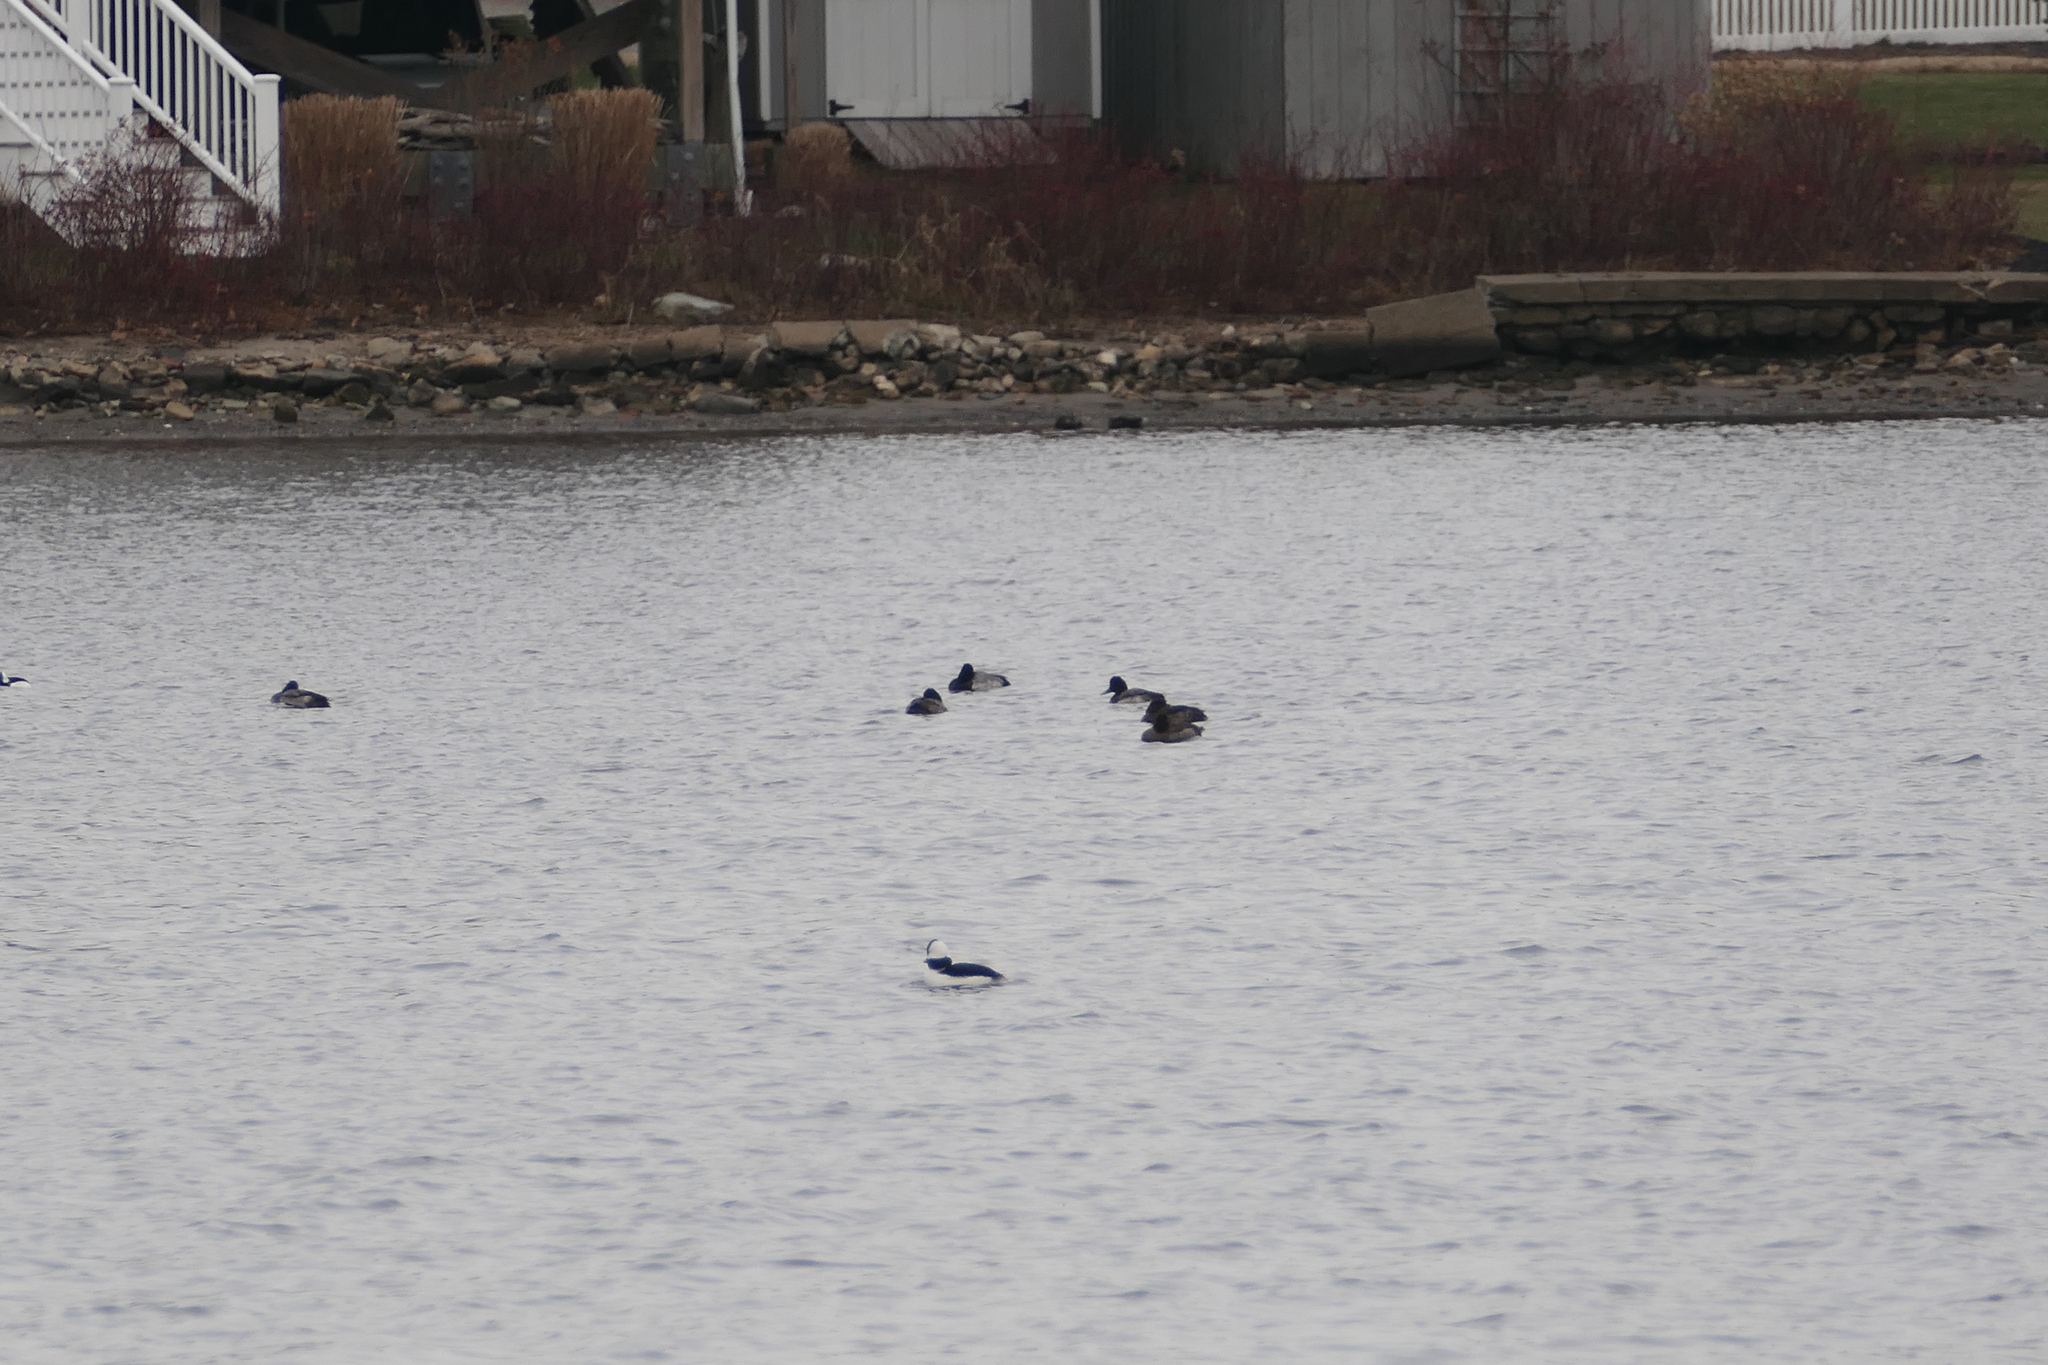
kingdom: Animalia
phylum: Chordata
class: Aves
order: Anseriformes
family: Anatidae
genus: Bucephala
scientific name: Bucephala albeola
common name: Bufflehead
